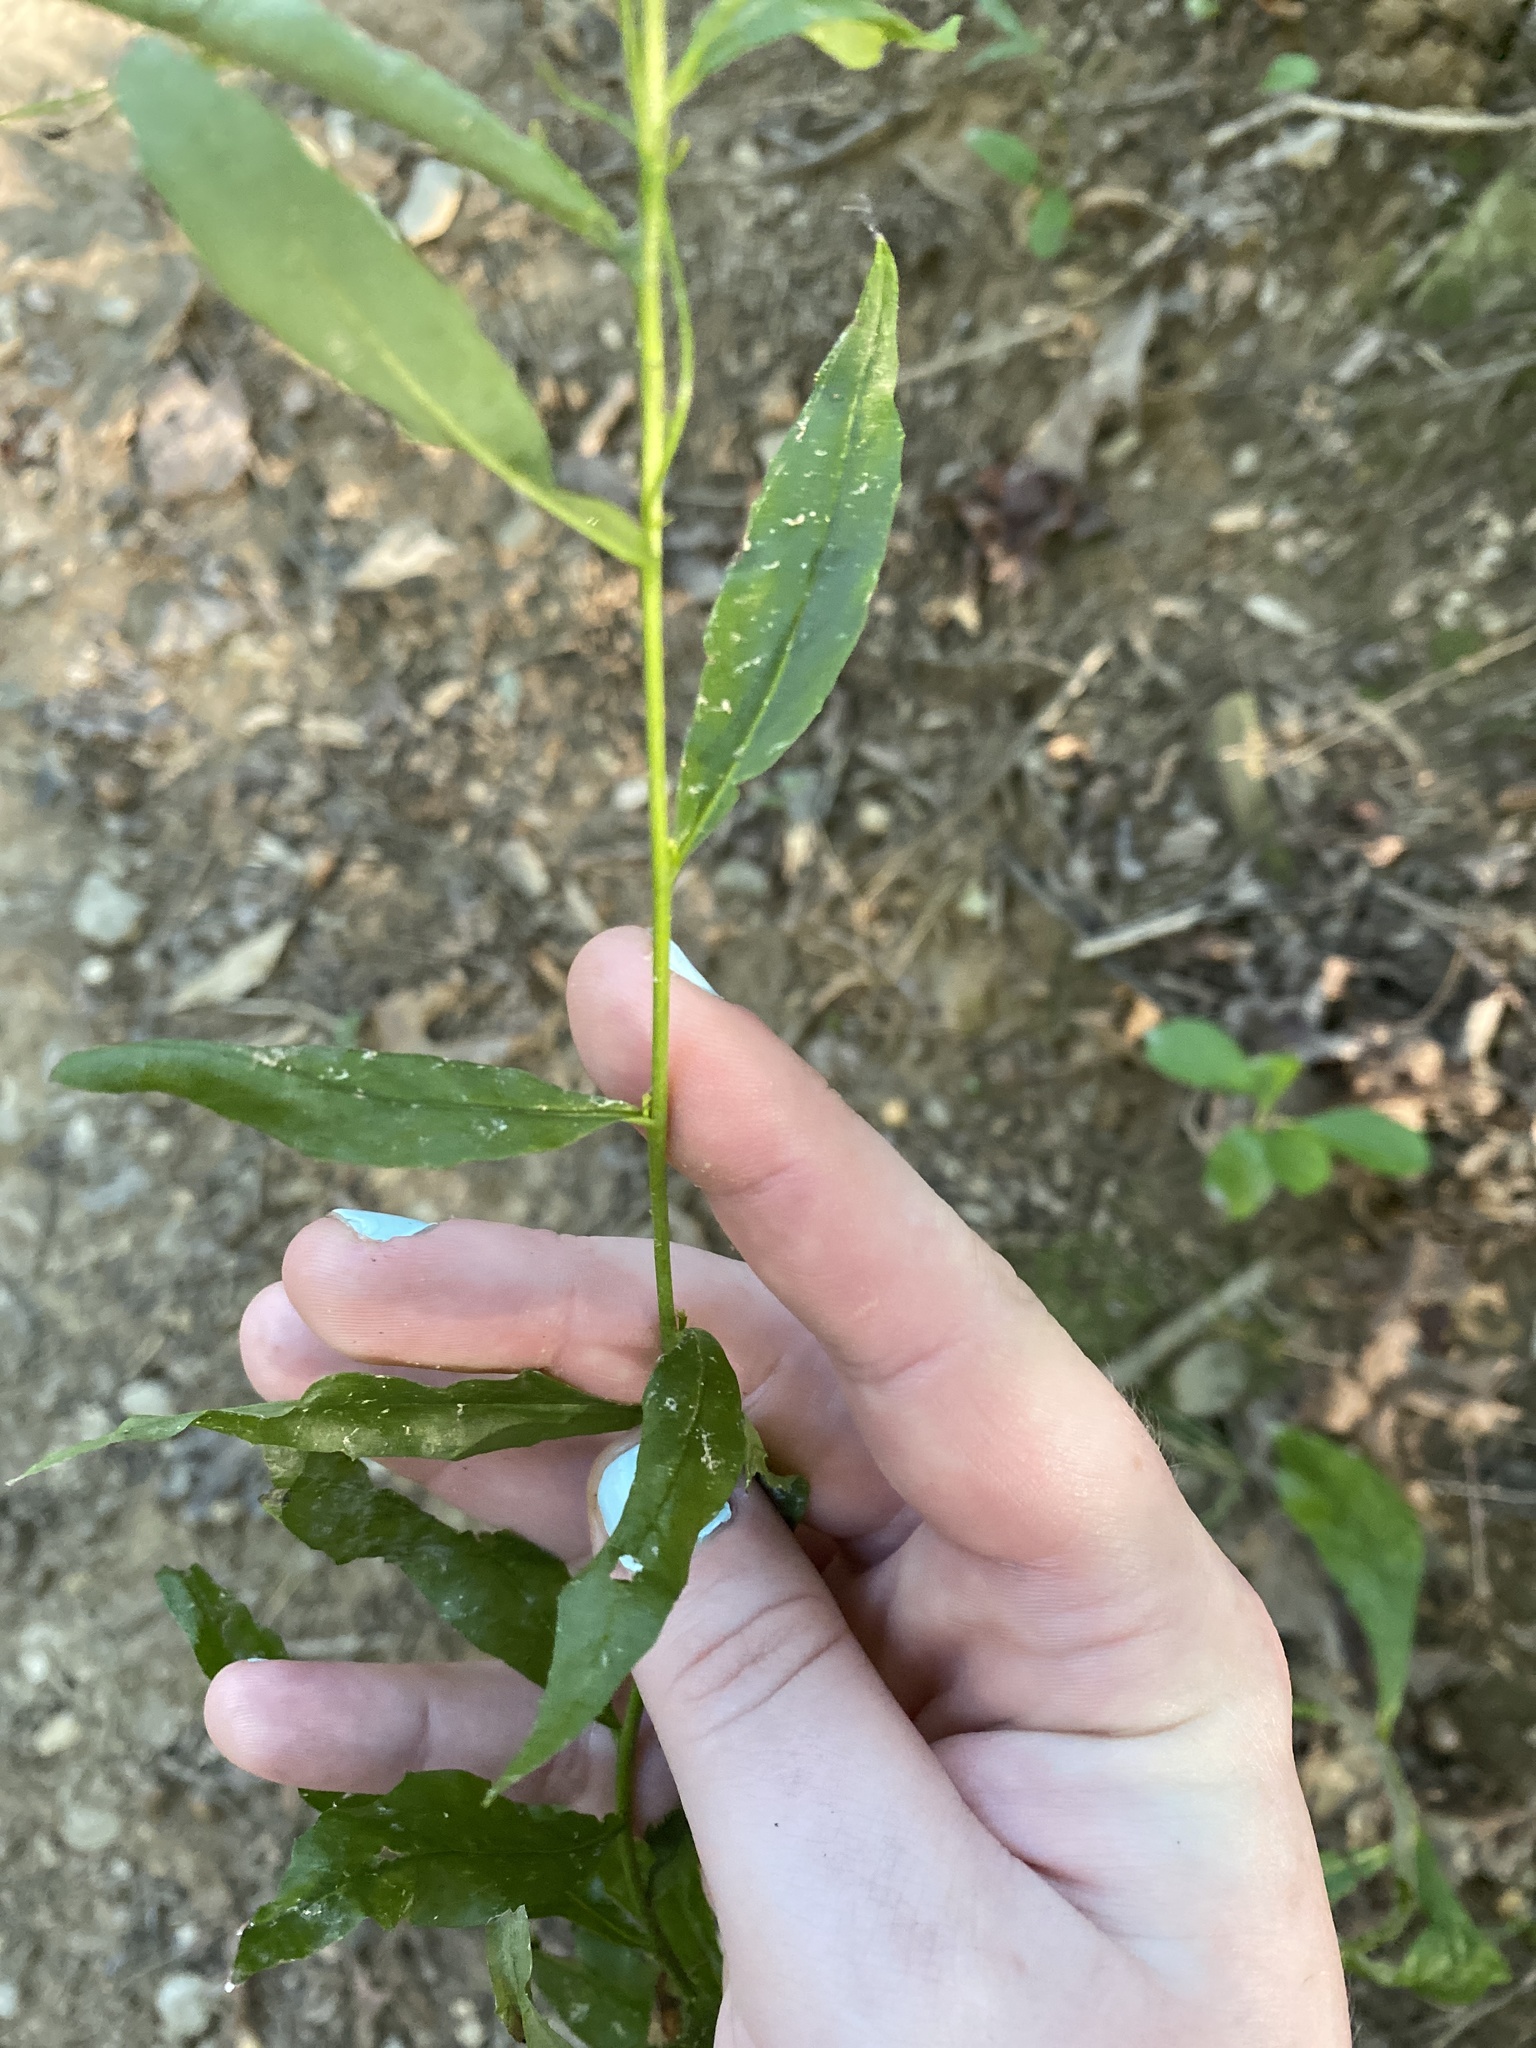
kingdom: Plantae
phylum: Tracheophyta
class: Magnoliopsida
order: Asterales
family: Asteraceae
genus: Hieracium
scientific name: Hieracium paniculatum
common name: Allegheny hawkweed
